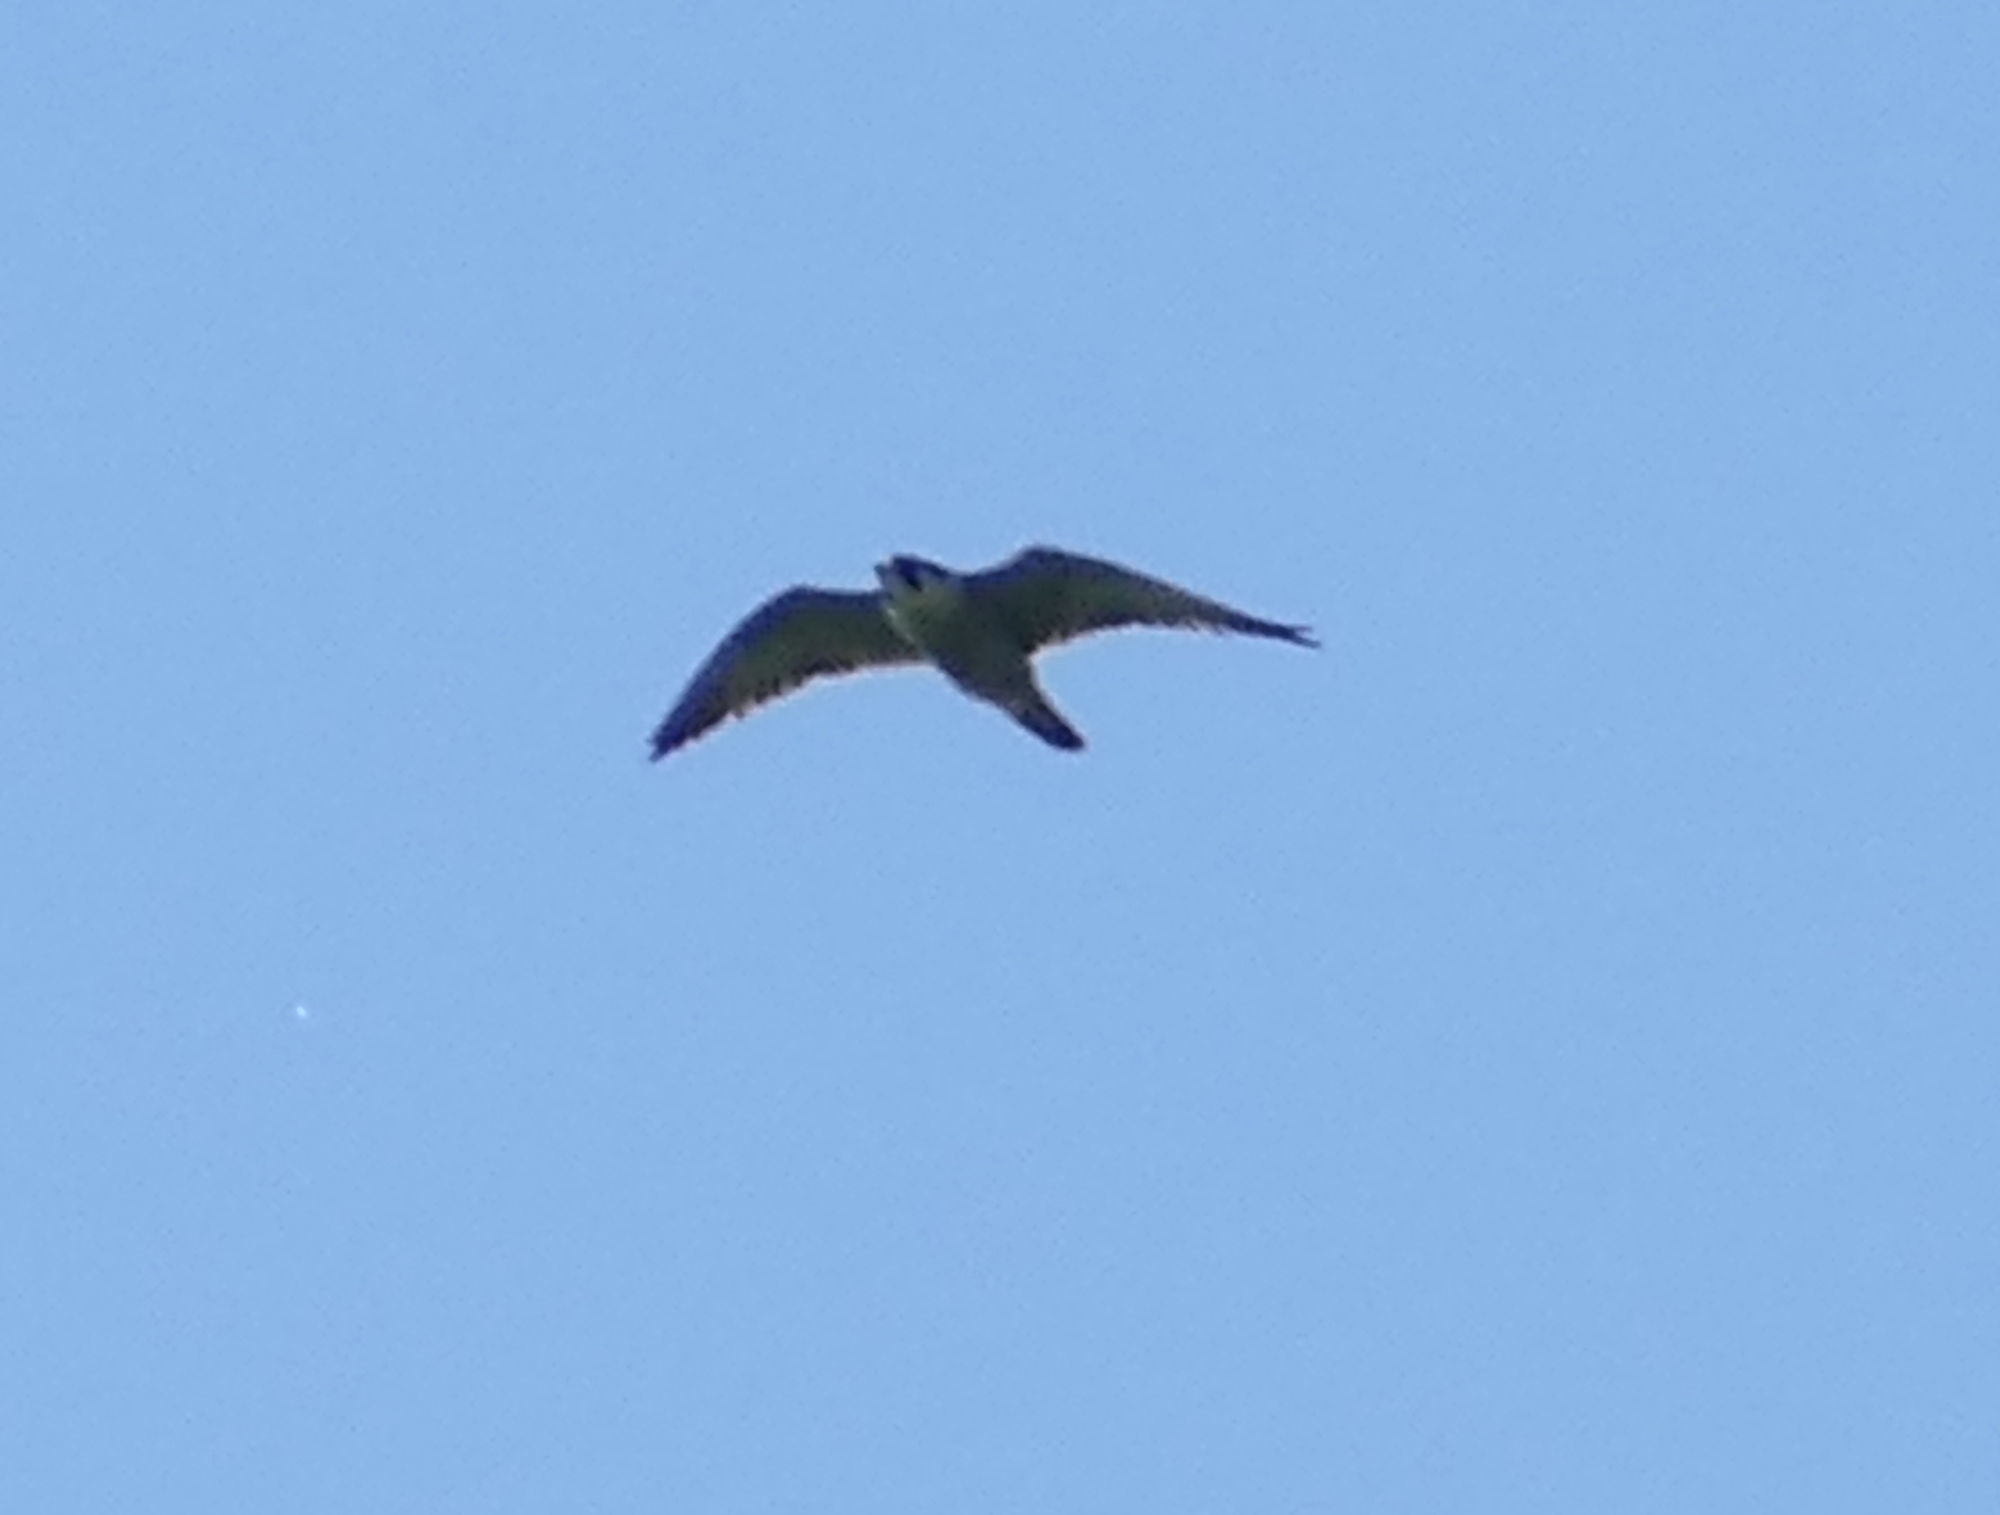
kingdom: Animalia
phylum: Chordata
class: Aves
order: Falconiformes
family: Falconidae
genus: Falco
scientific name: Falco peregrinus
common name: Peregrine falcon
